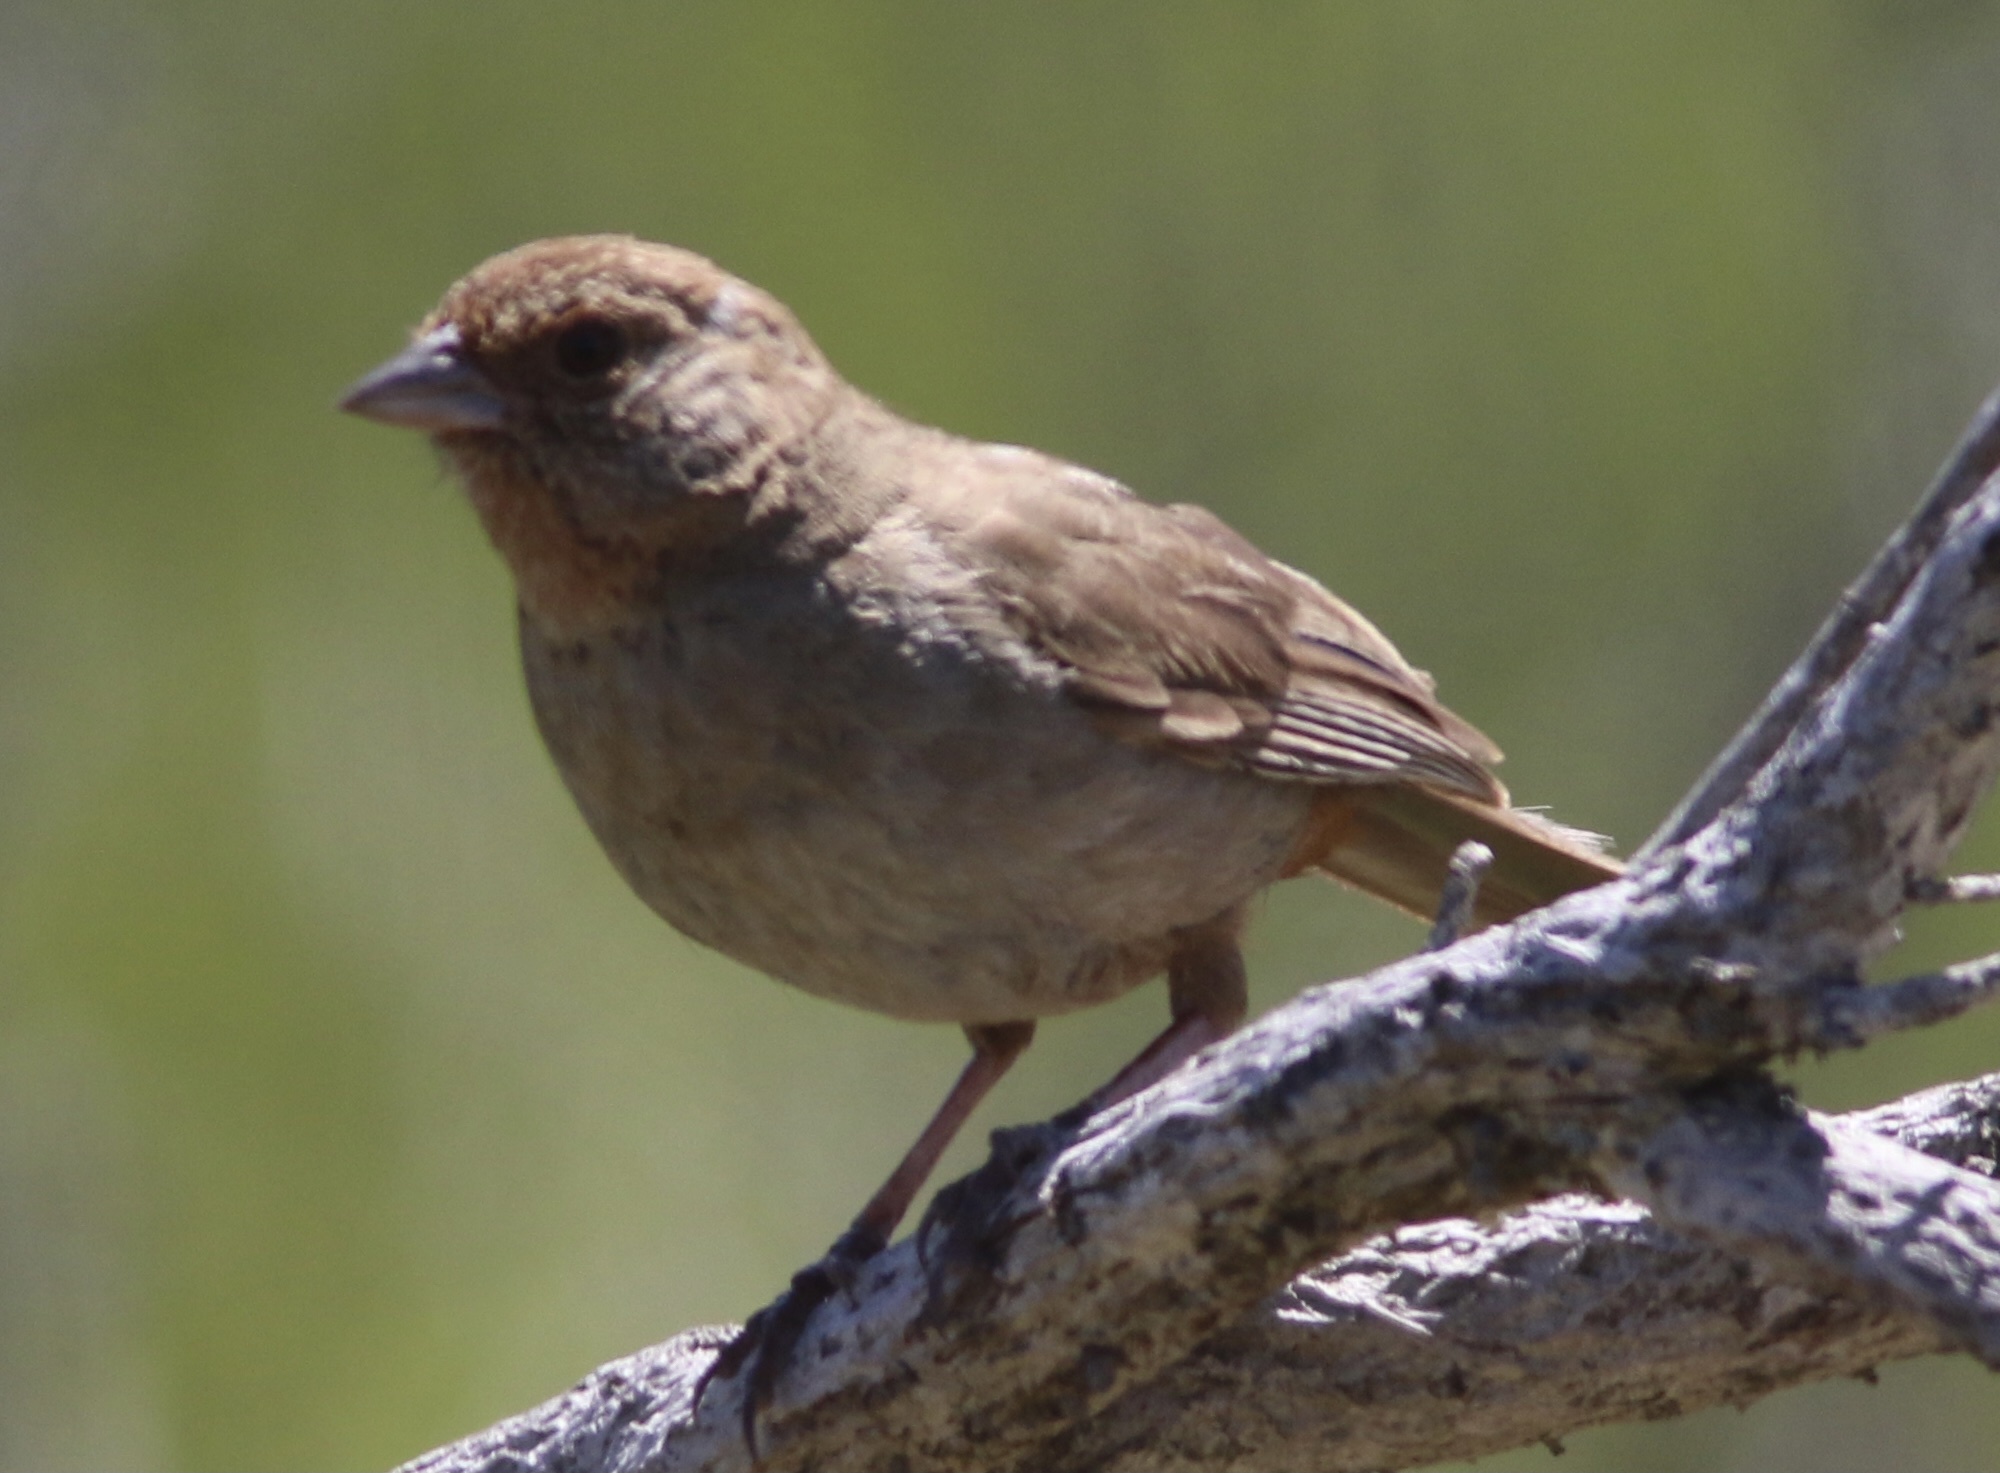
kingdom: Animalia
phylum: Chordata
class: Aves
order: Passeriformes
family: Passerellidae
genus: Melozone
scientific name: Melozone crissalis
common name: California towhee
